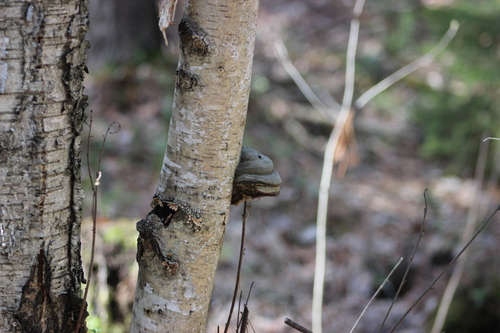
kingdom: Fungi
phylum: Basidiomycota
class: Agaricomycetes
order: Polyporales
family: Polyporaceae
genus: Fomes
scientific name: Fomes fomentarius
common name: Hoof fungus
